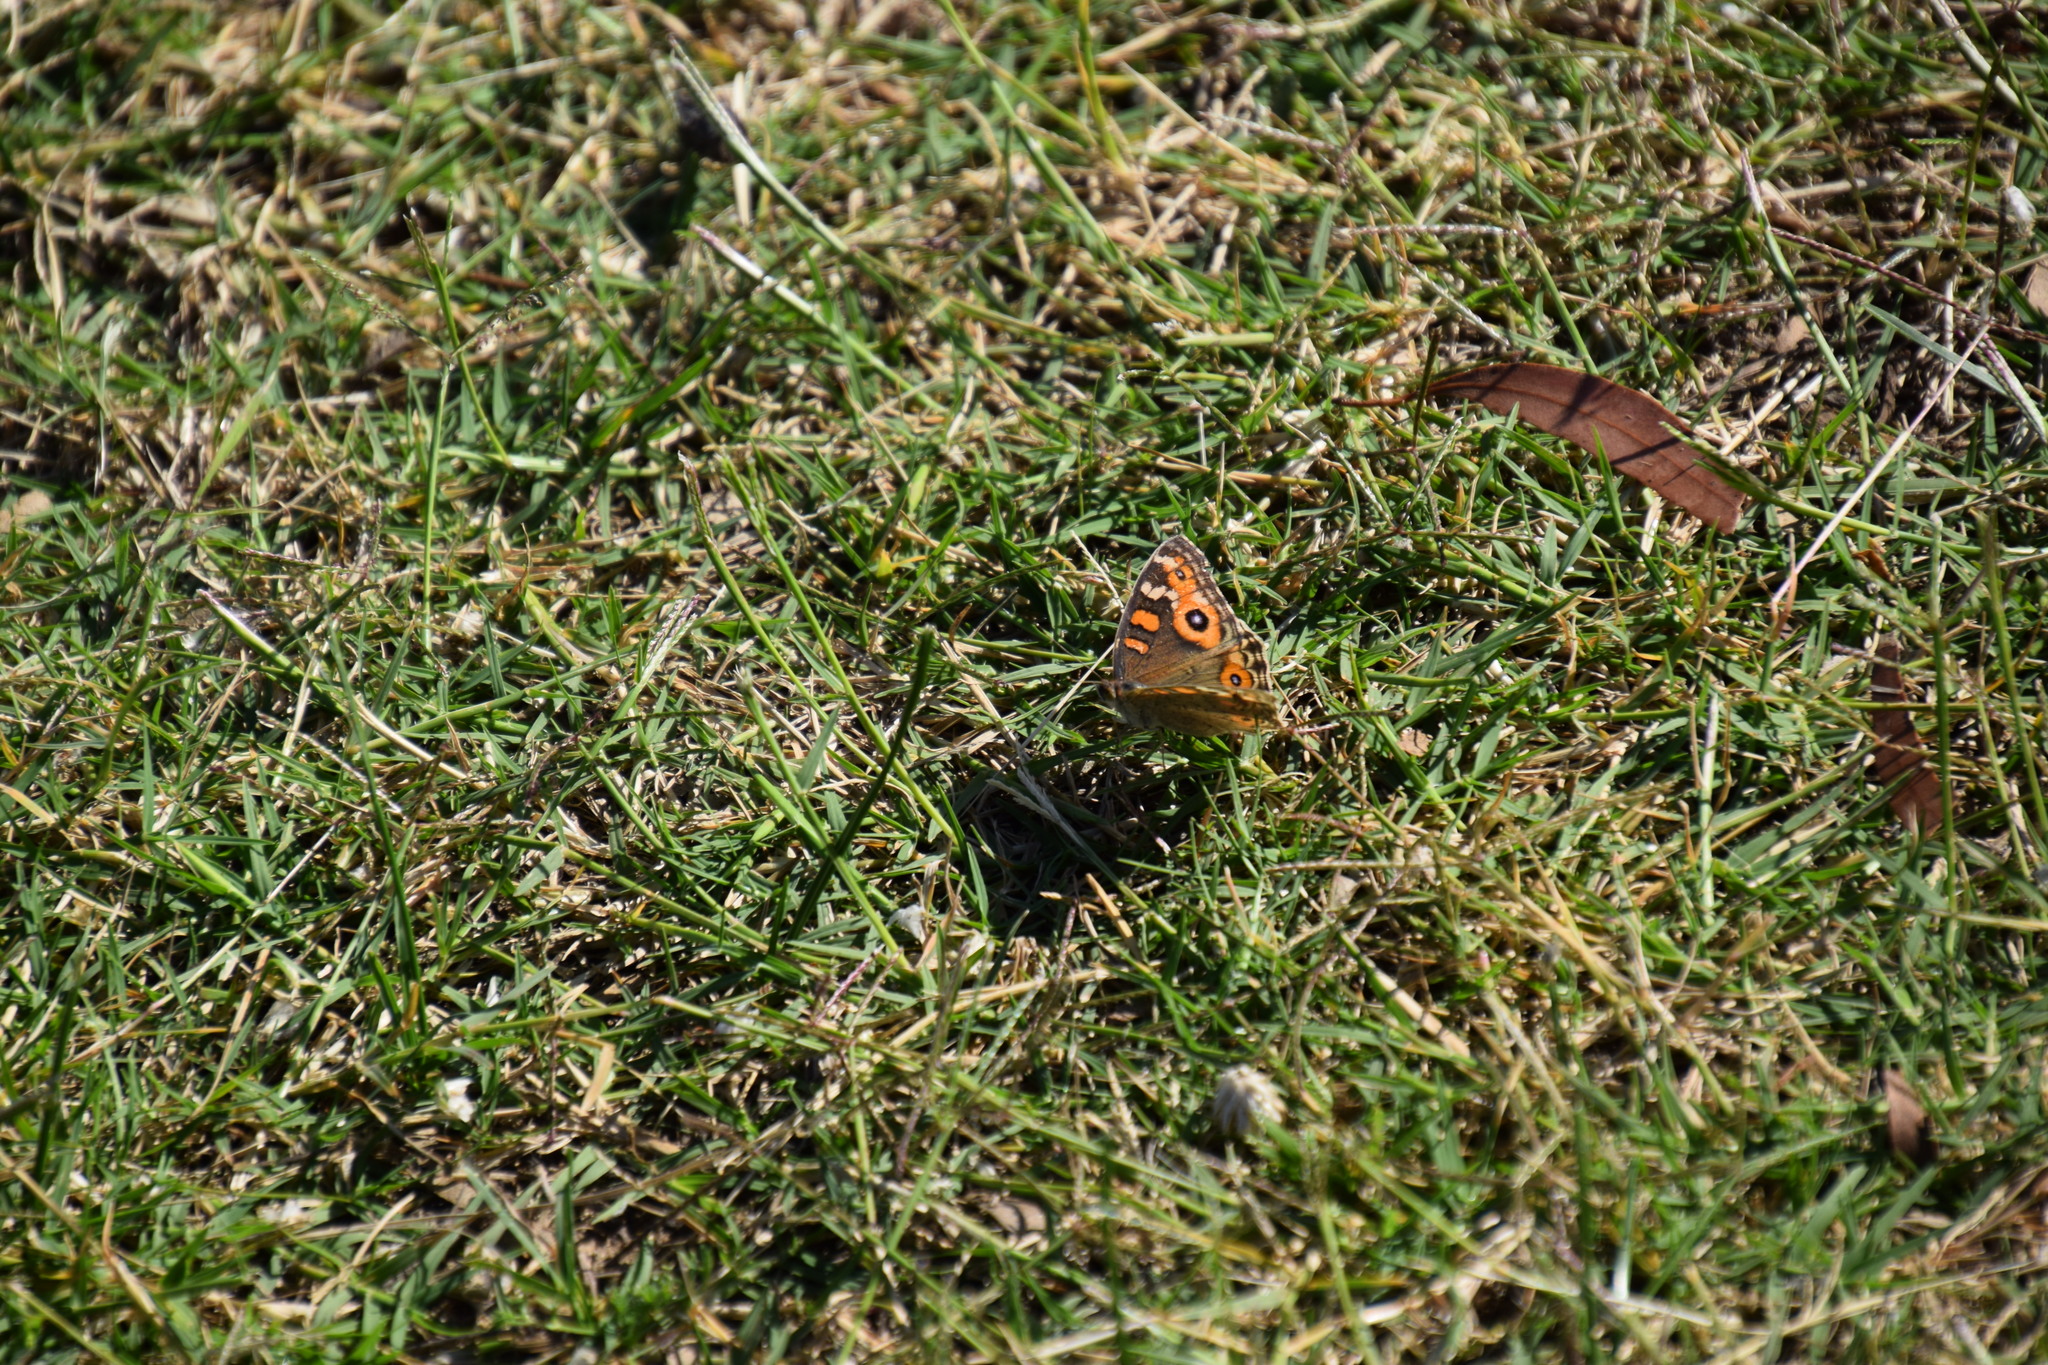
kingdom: Animalia
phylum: Arthropoda
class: Insecta
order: Lepidoptera
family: Nymphalidae
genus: Junonia
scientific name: Junonia villida
